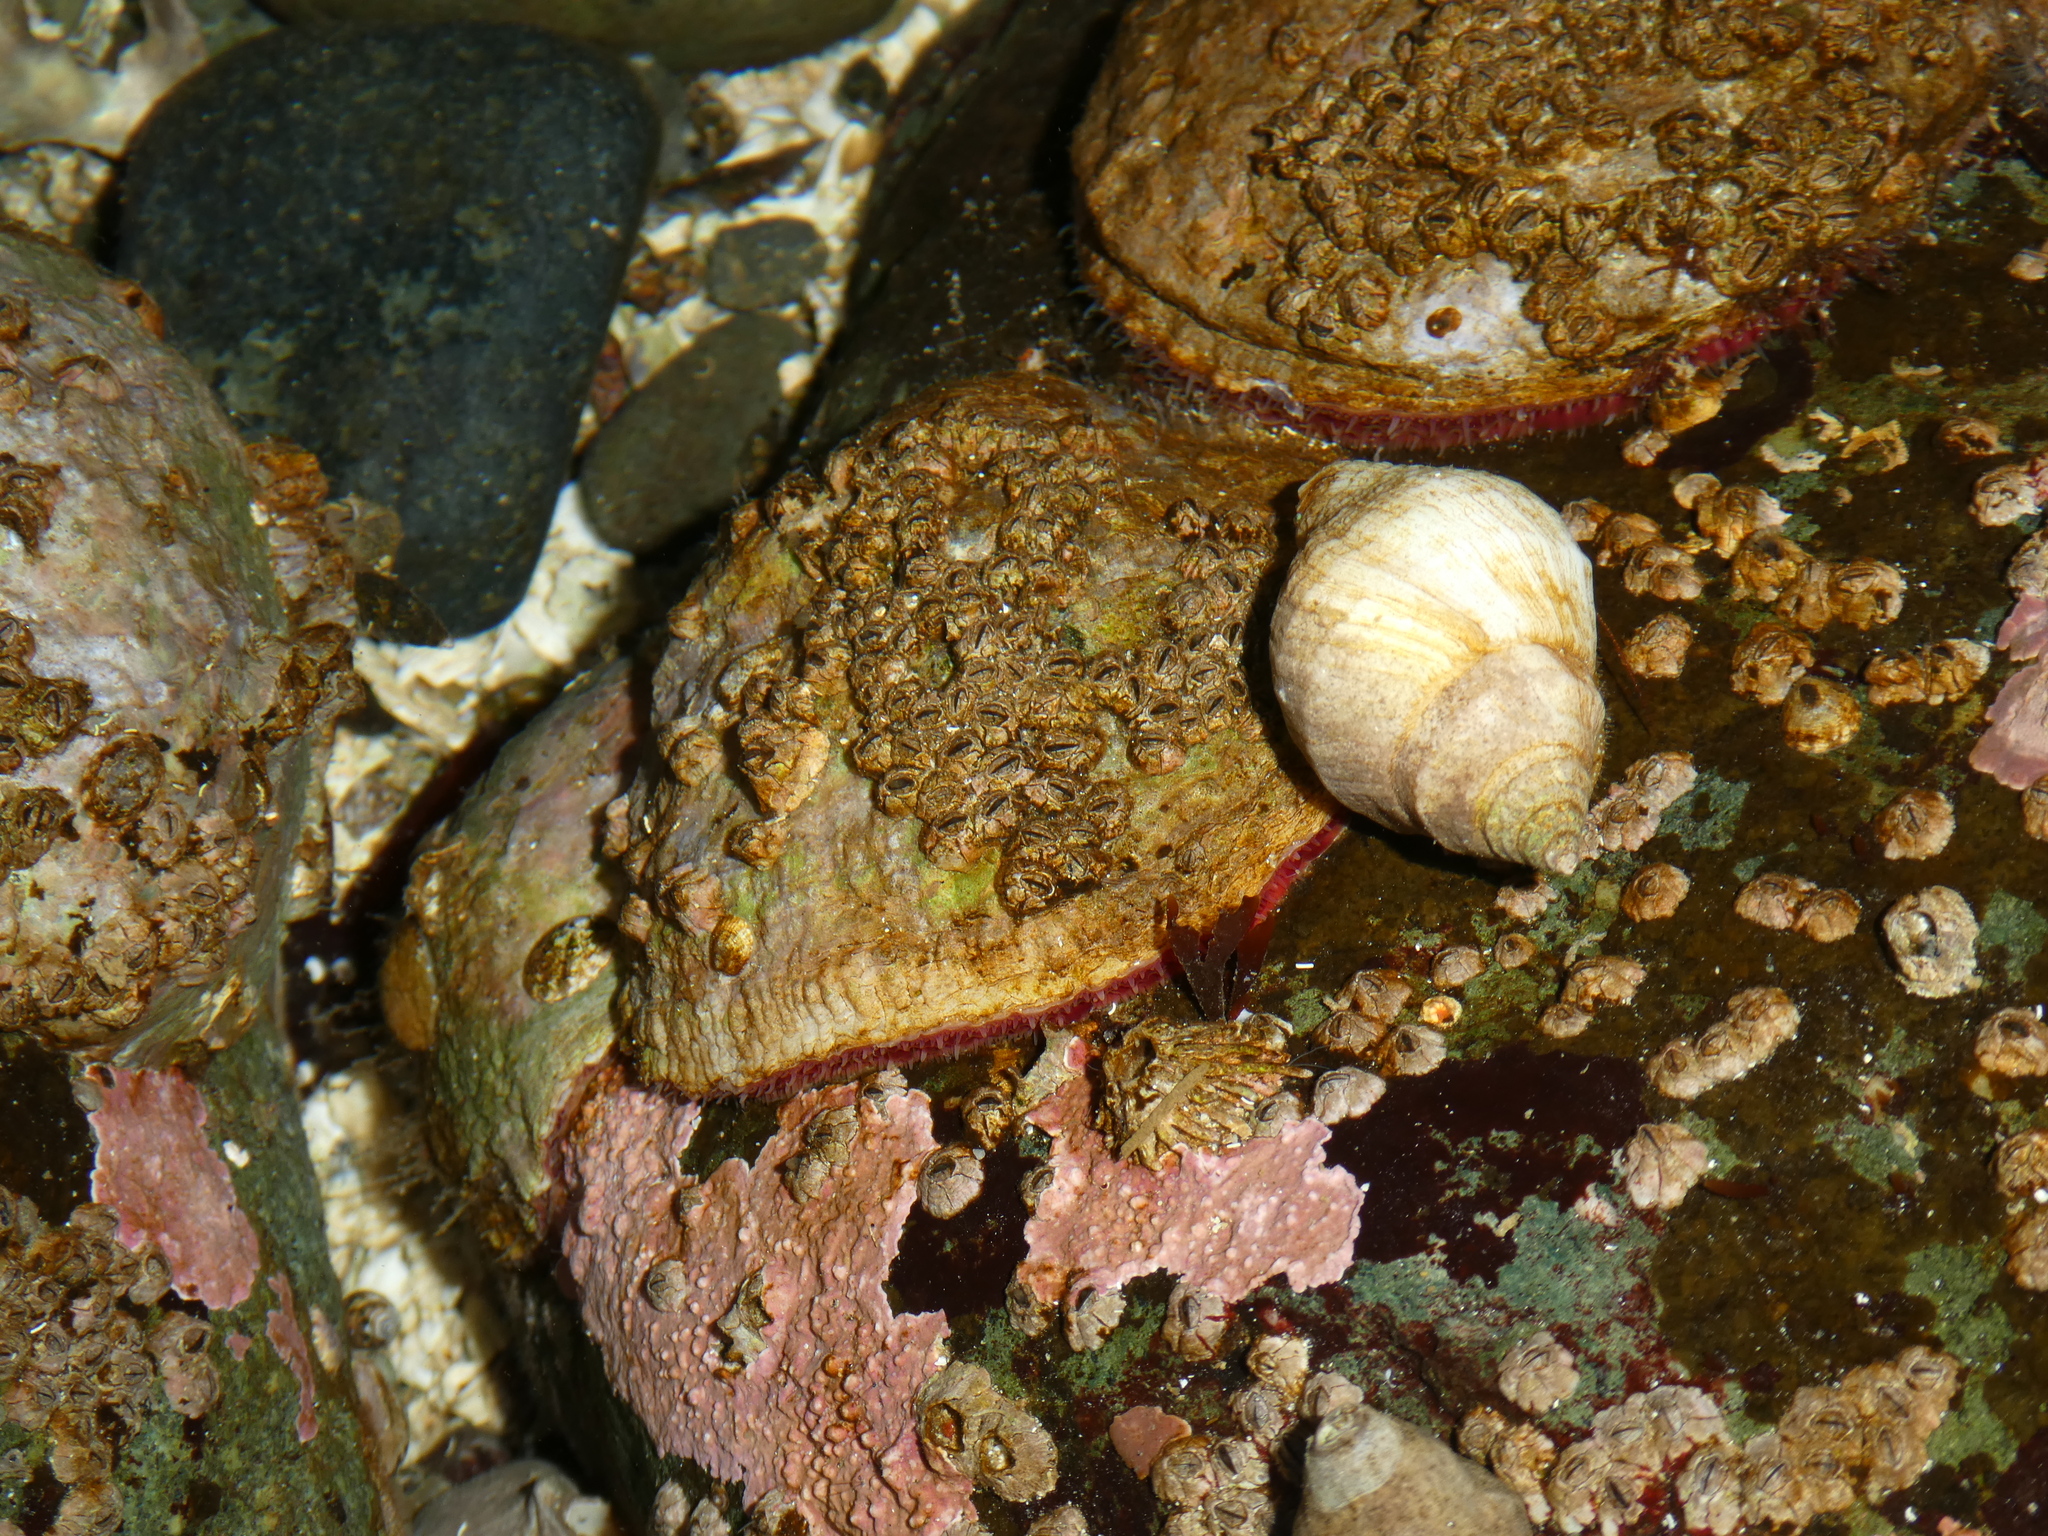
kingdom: Animalia
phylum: Mollusca
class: Bivalvia
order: Pectinida
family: Anomiidae
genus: Pododesmus
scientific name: Pododesmus macrochisma
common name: Alaska jingle
